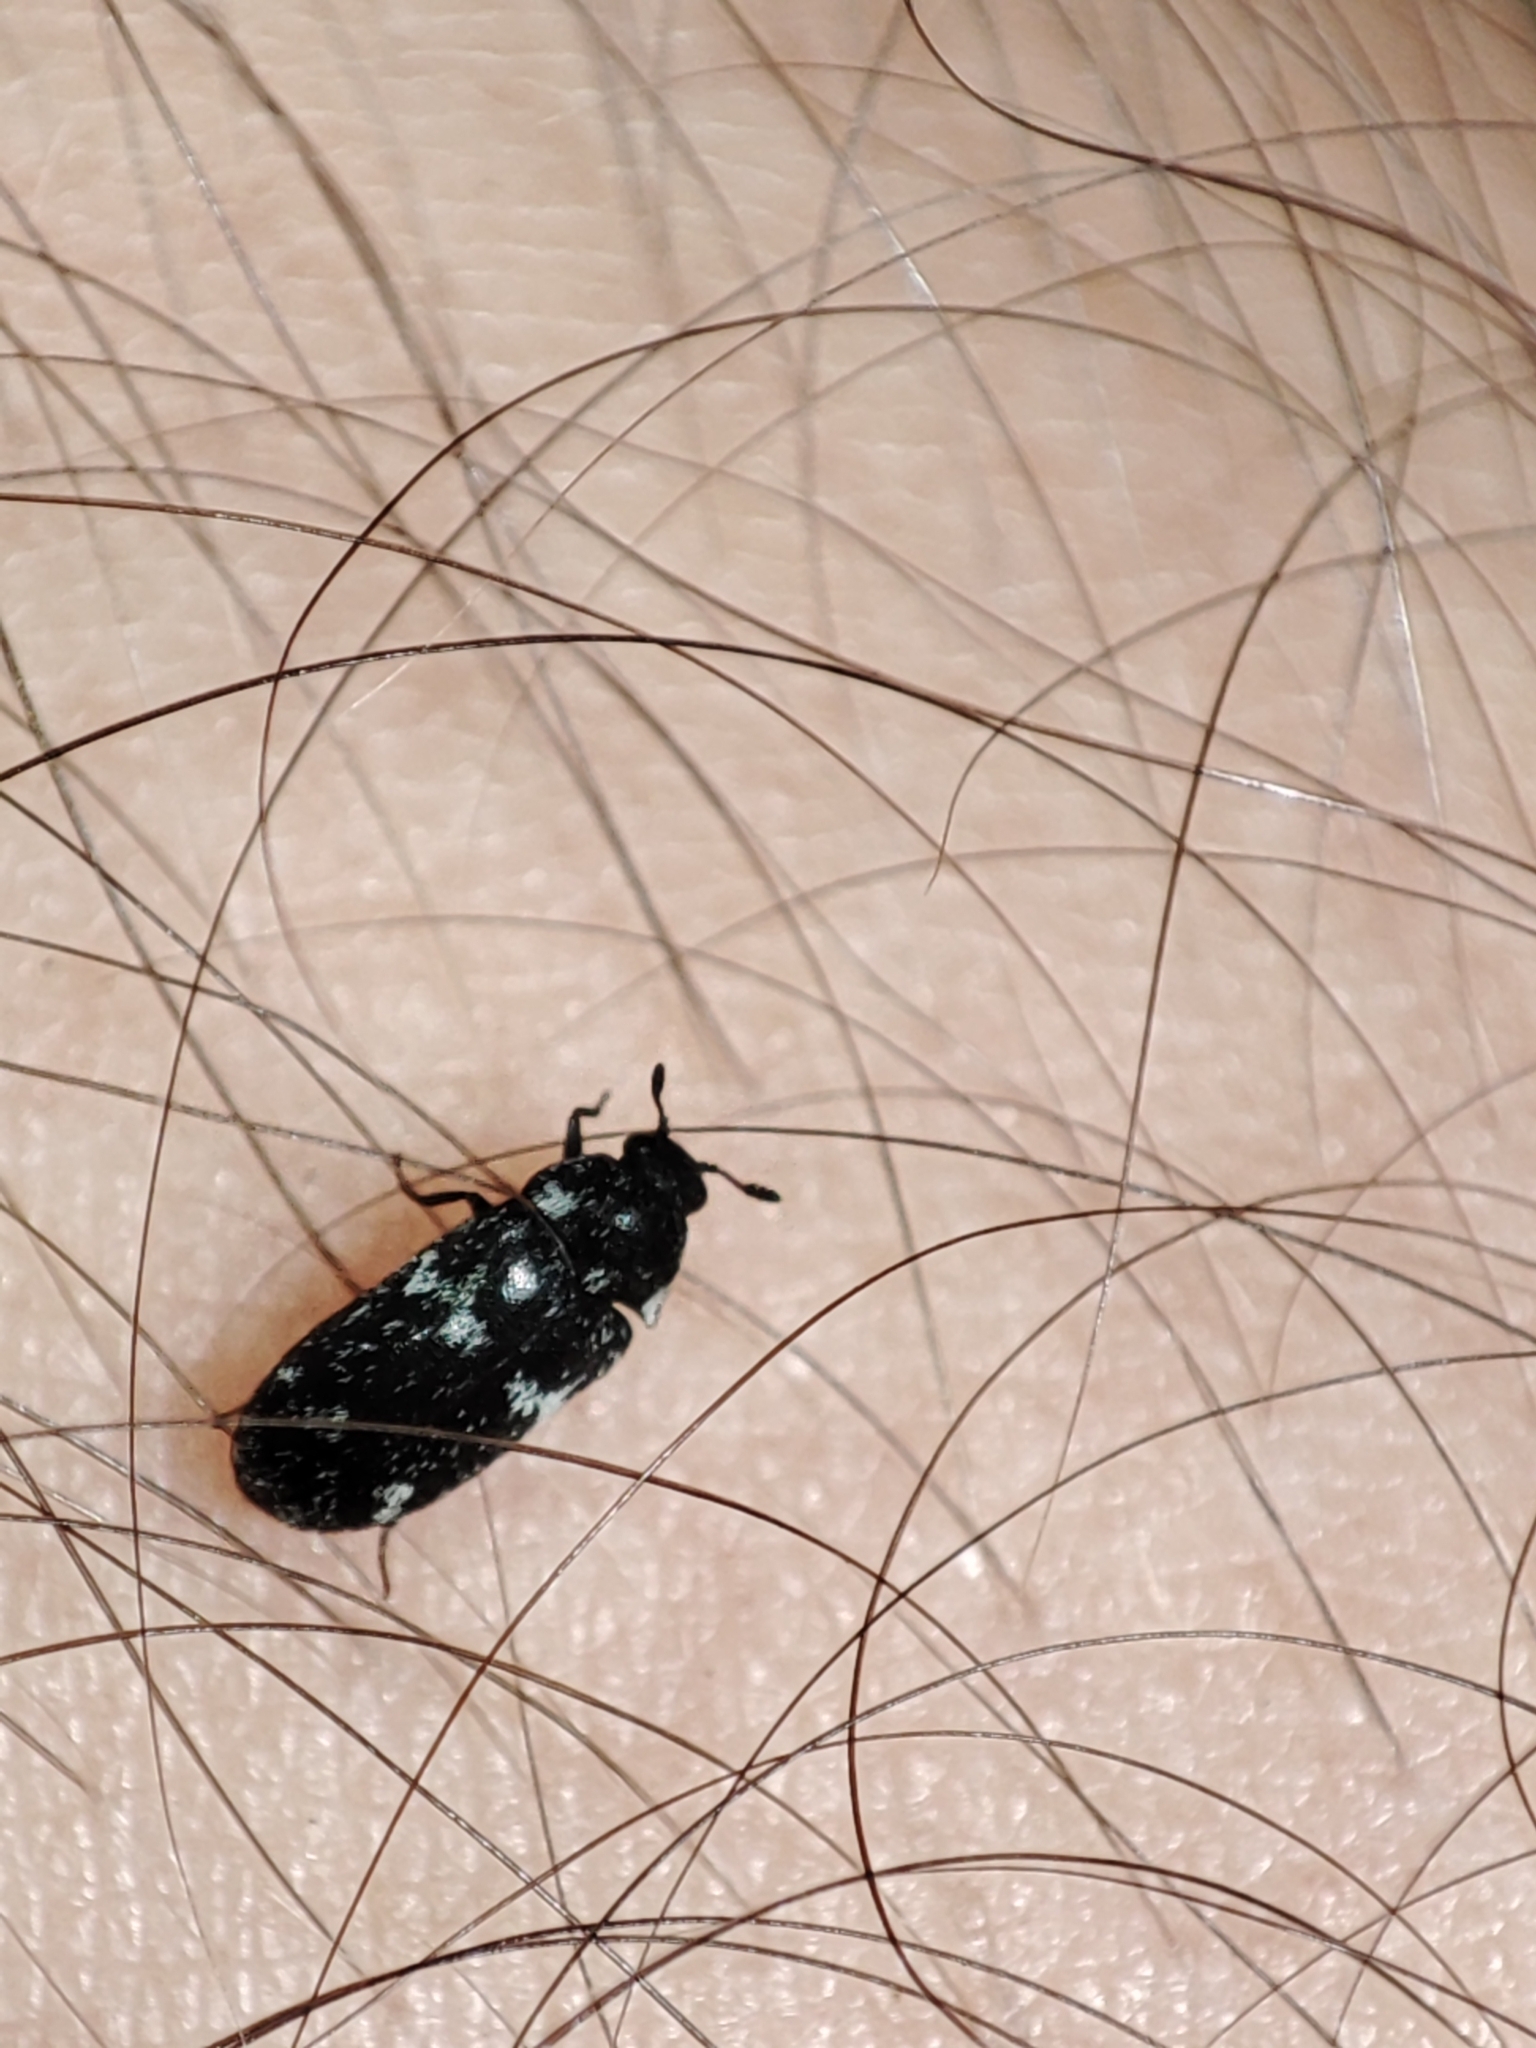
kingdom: Animalia
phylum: Arthropoda
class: Insecta
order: Coleoptera
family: Dermestidae
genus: Megatoma
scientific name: Megatoma undata
